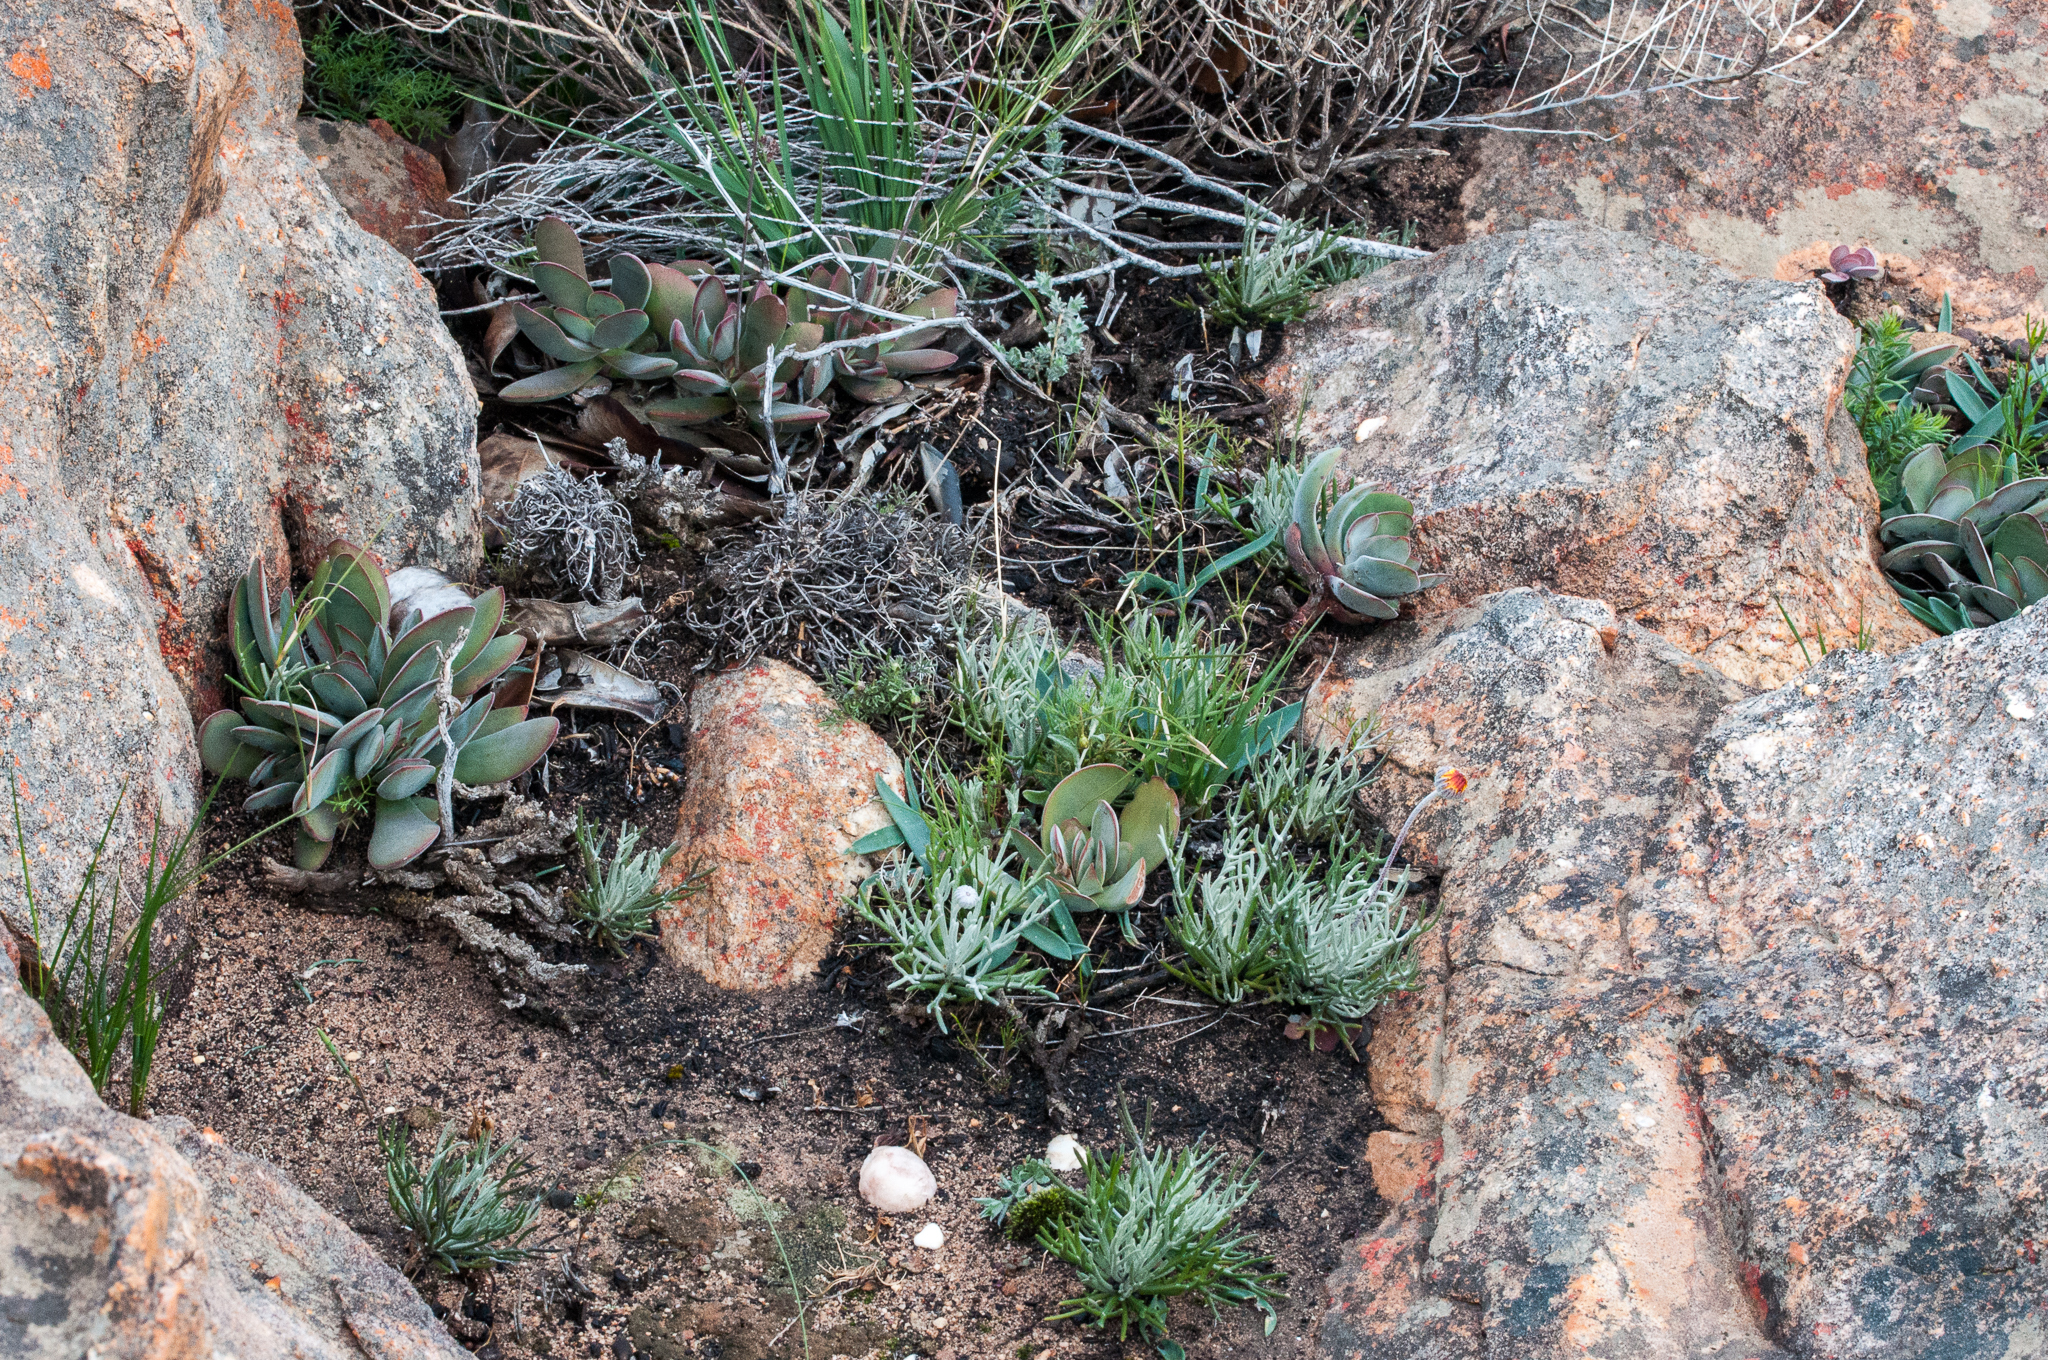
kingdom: Plantae
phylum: Tracheophyta
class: Magnoliopsida
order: Saxifragales
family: Crassulaceae
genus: Crassula
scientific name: Crassula cotyledonis
